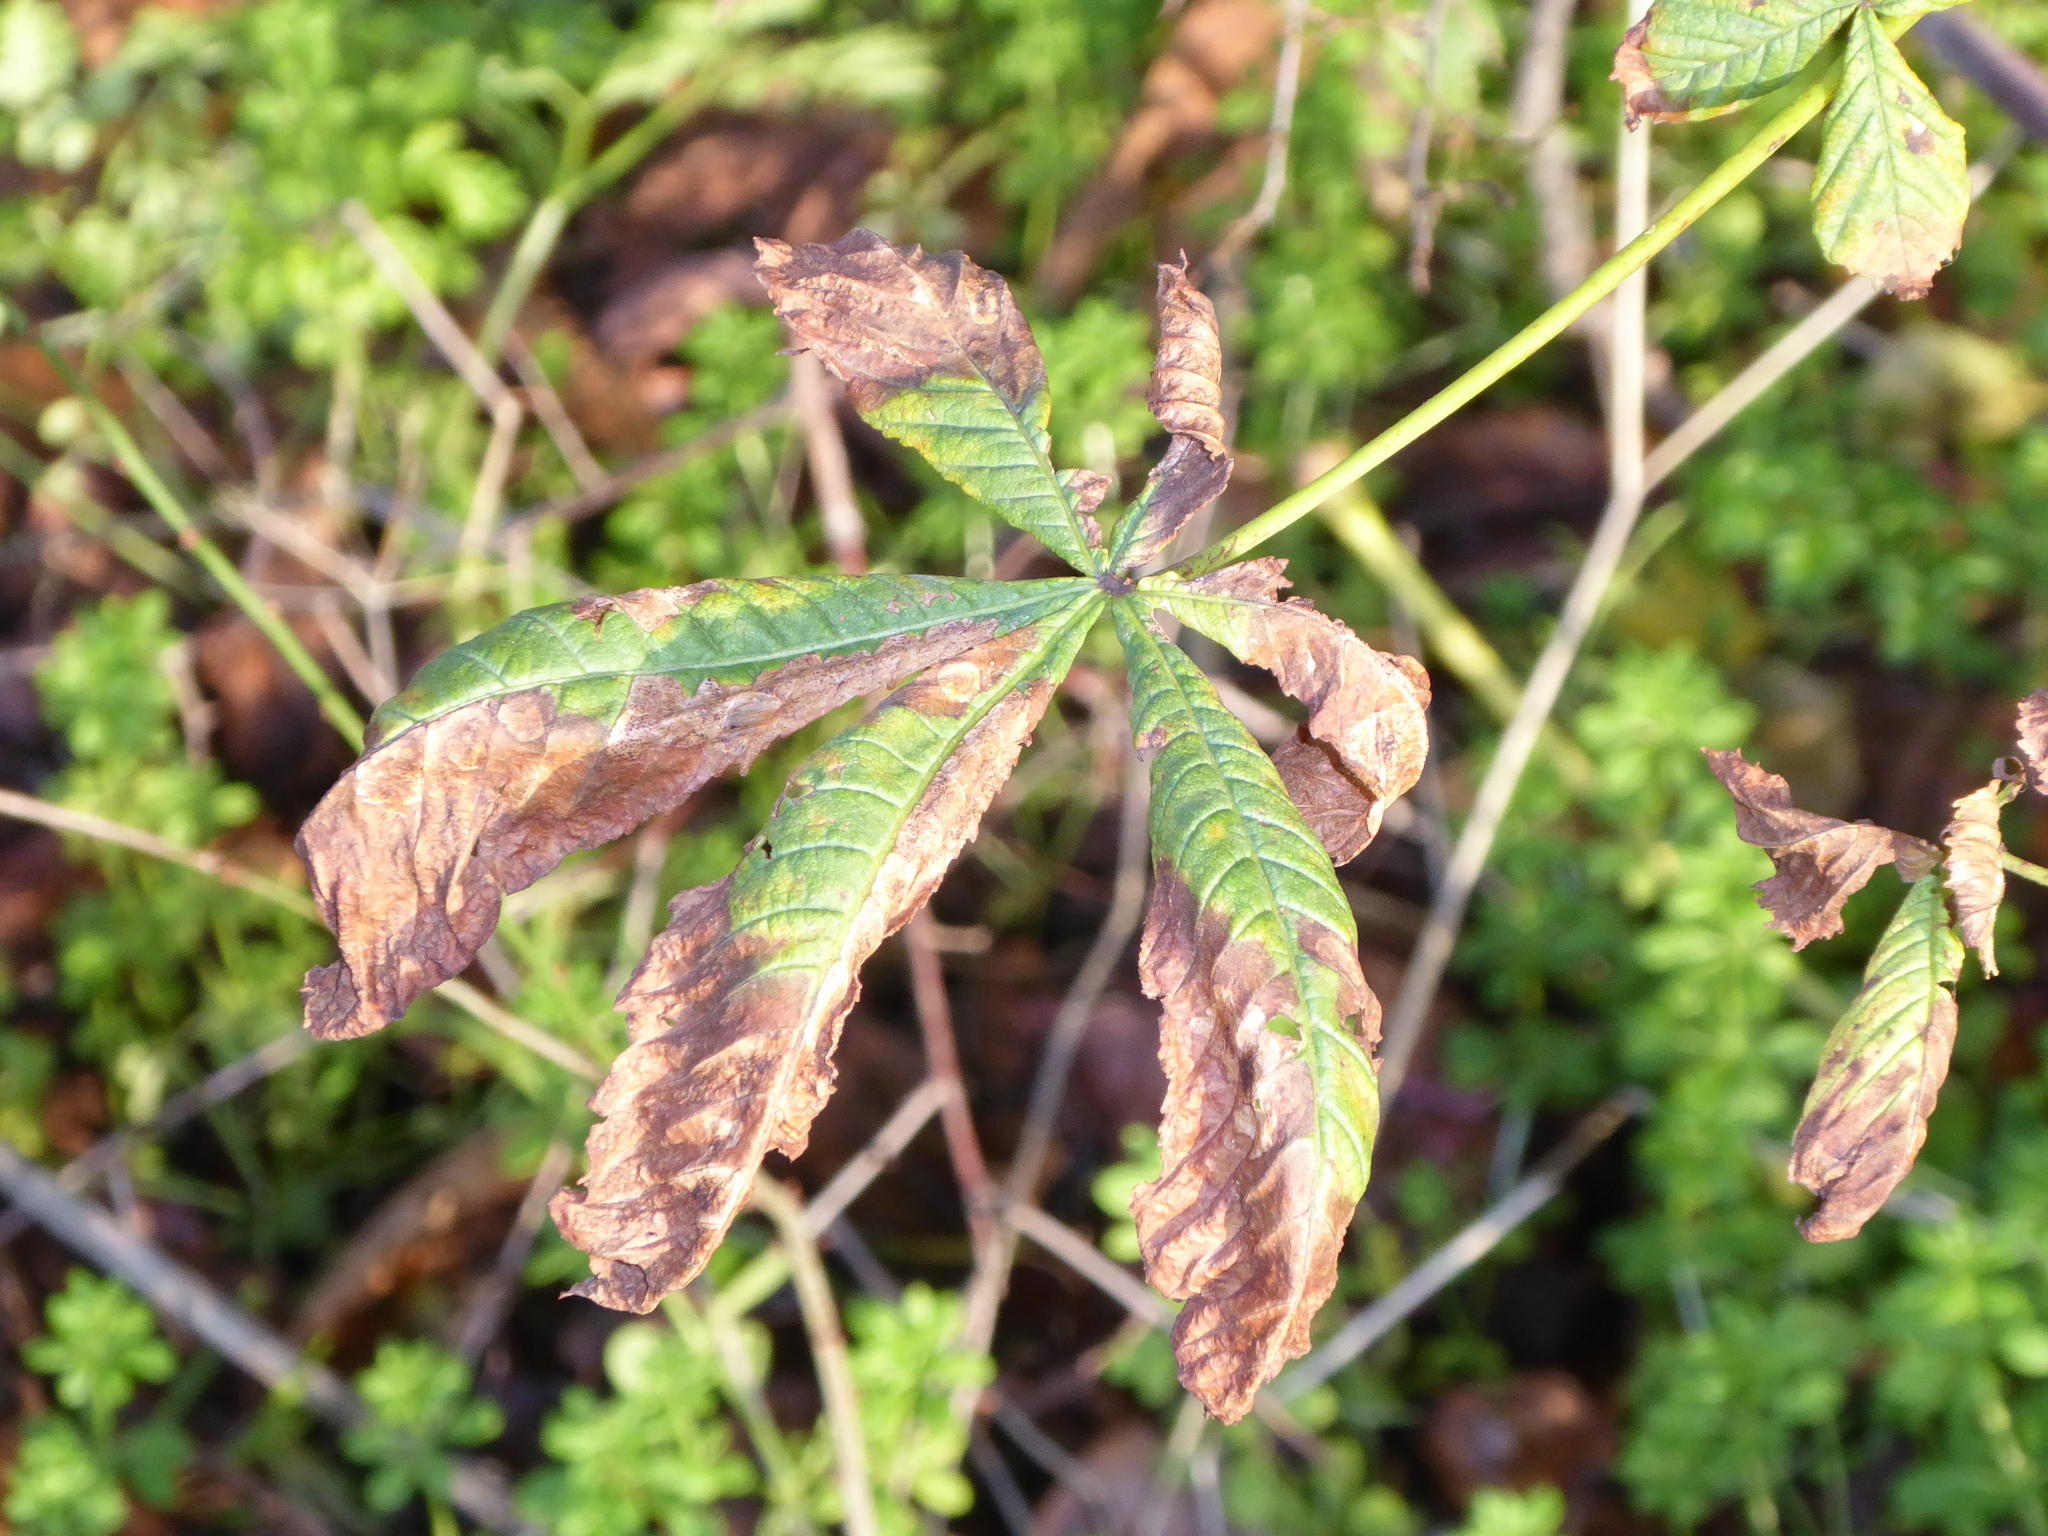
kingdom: Plantae
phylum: Tracheophyta
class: Magnoliopsida
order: Santalales
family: Viscaceae
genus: Viscum
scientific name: Viscum album
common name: Mistletoe
